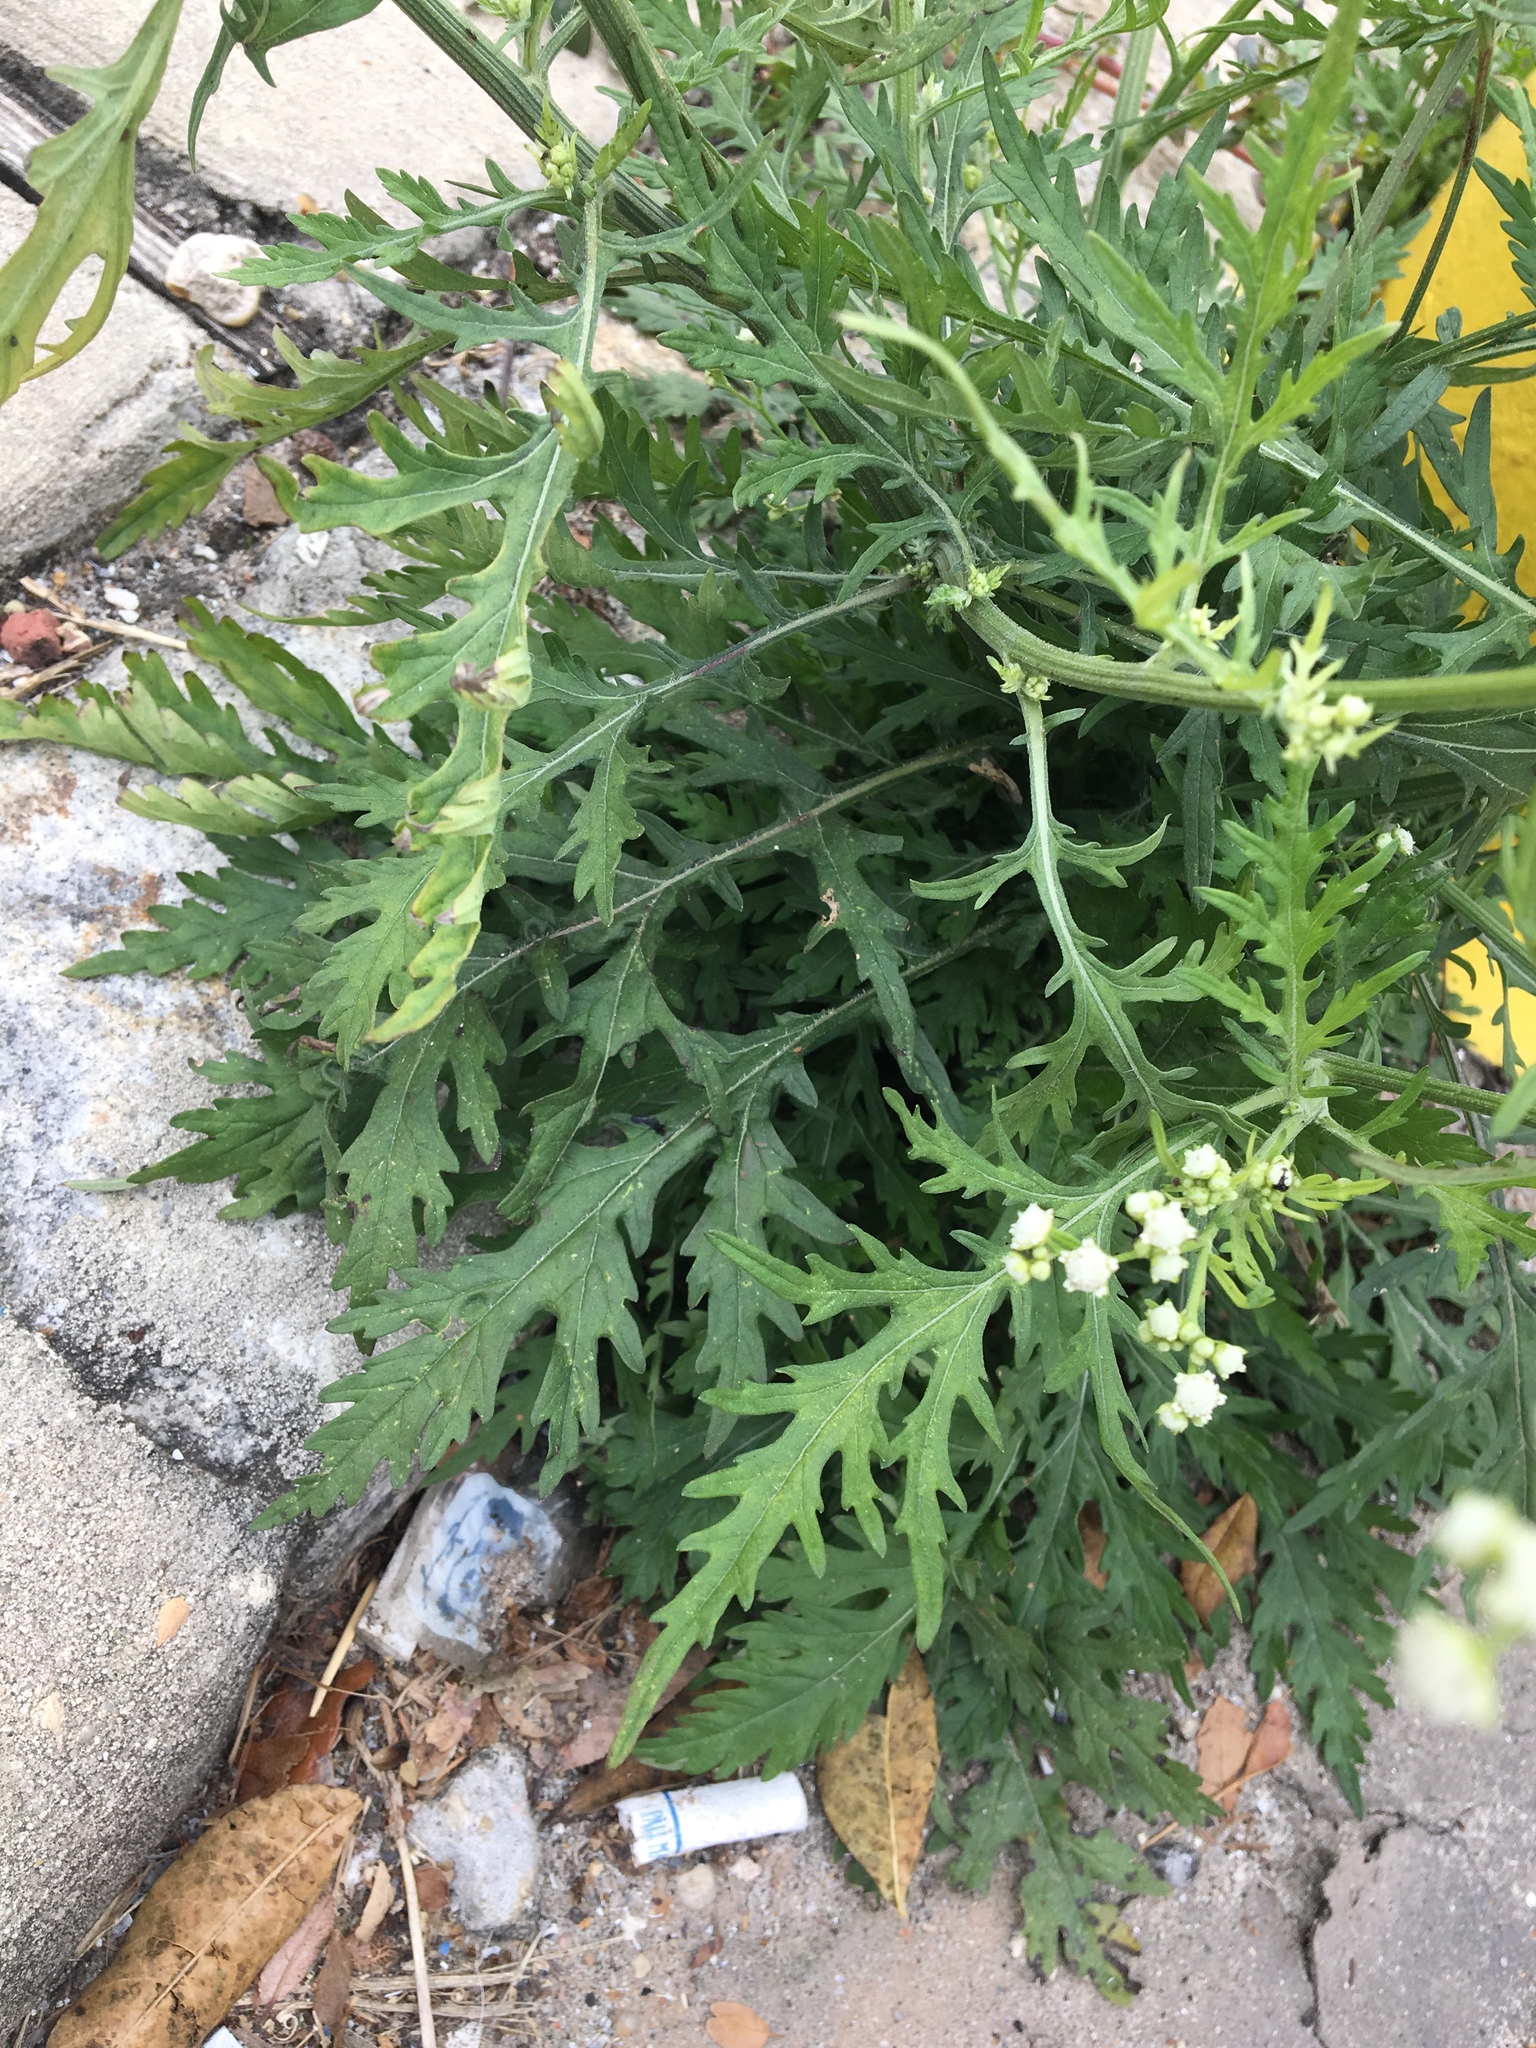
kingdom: Plantae
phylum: Tracheophyta
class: Magnoliopsida
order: Asterales
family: Asteraceae
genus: Parthenium
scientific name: Parthenium hysterophorus
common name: Santa maria feverfew
